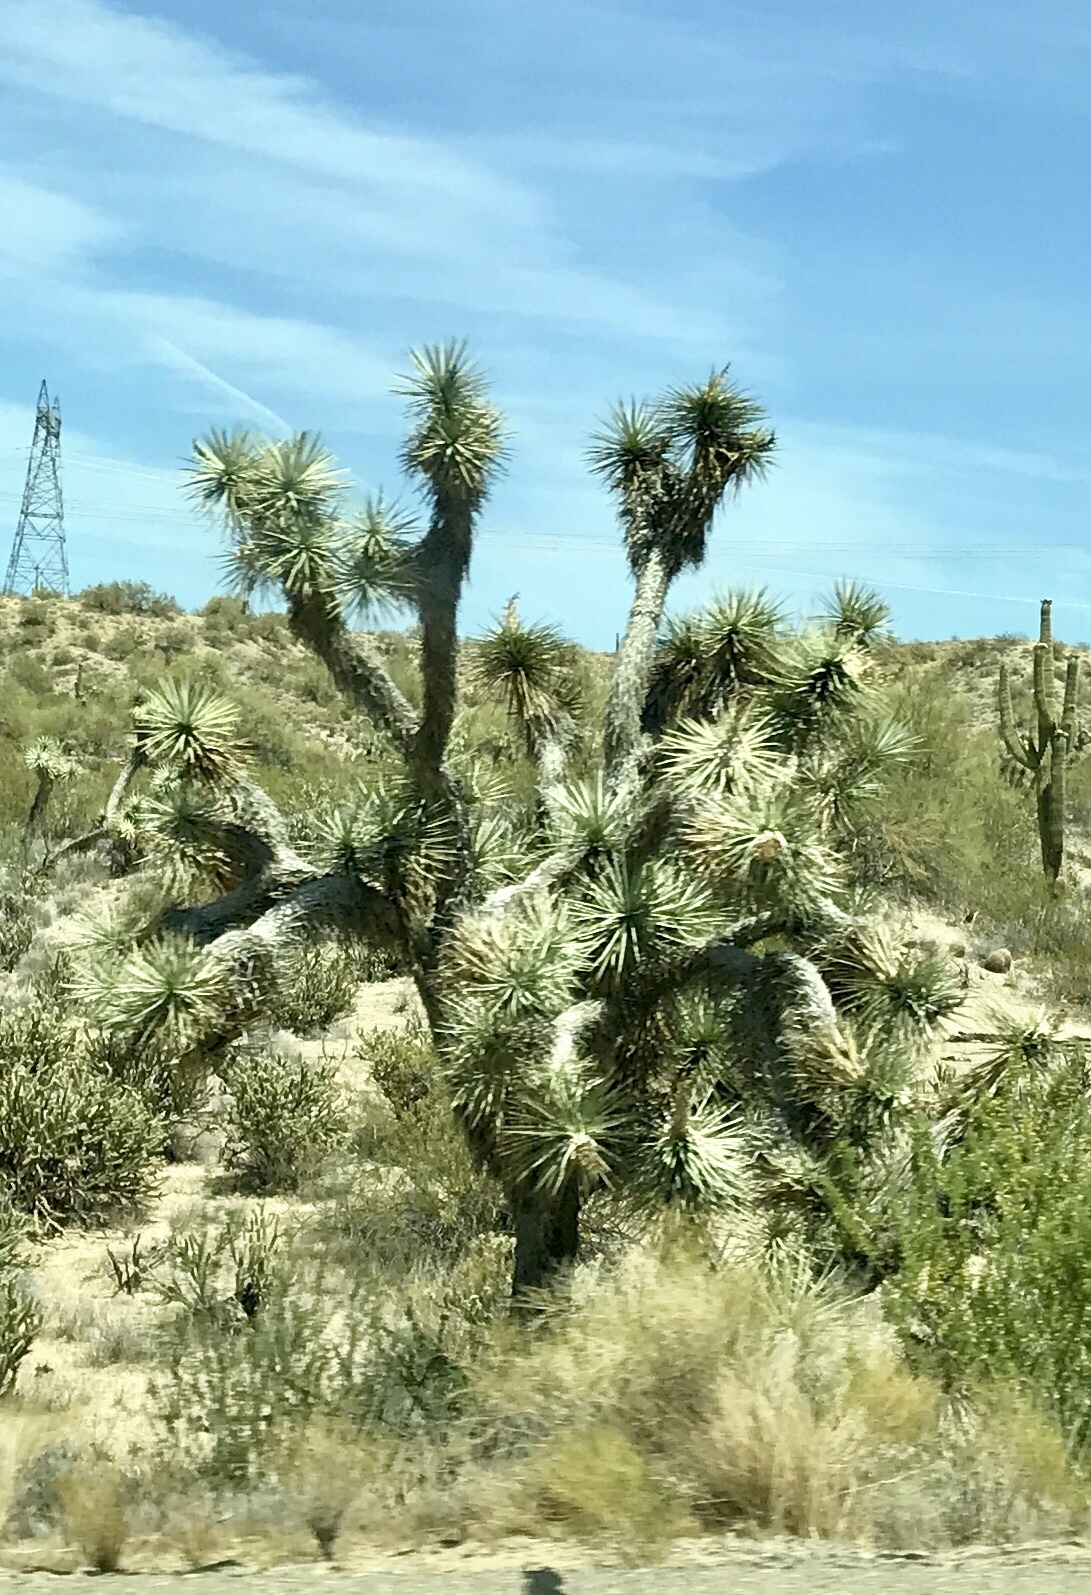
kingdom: Plantae
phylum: Tracheophyta
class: Liliopsida
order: Asparagales
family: Asparagaceae
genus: Yucca
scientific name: Yucca brevifolia
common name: Joshua tree
